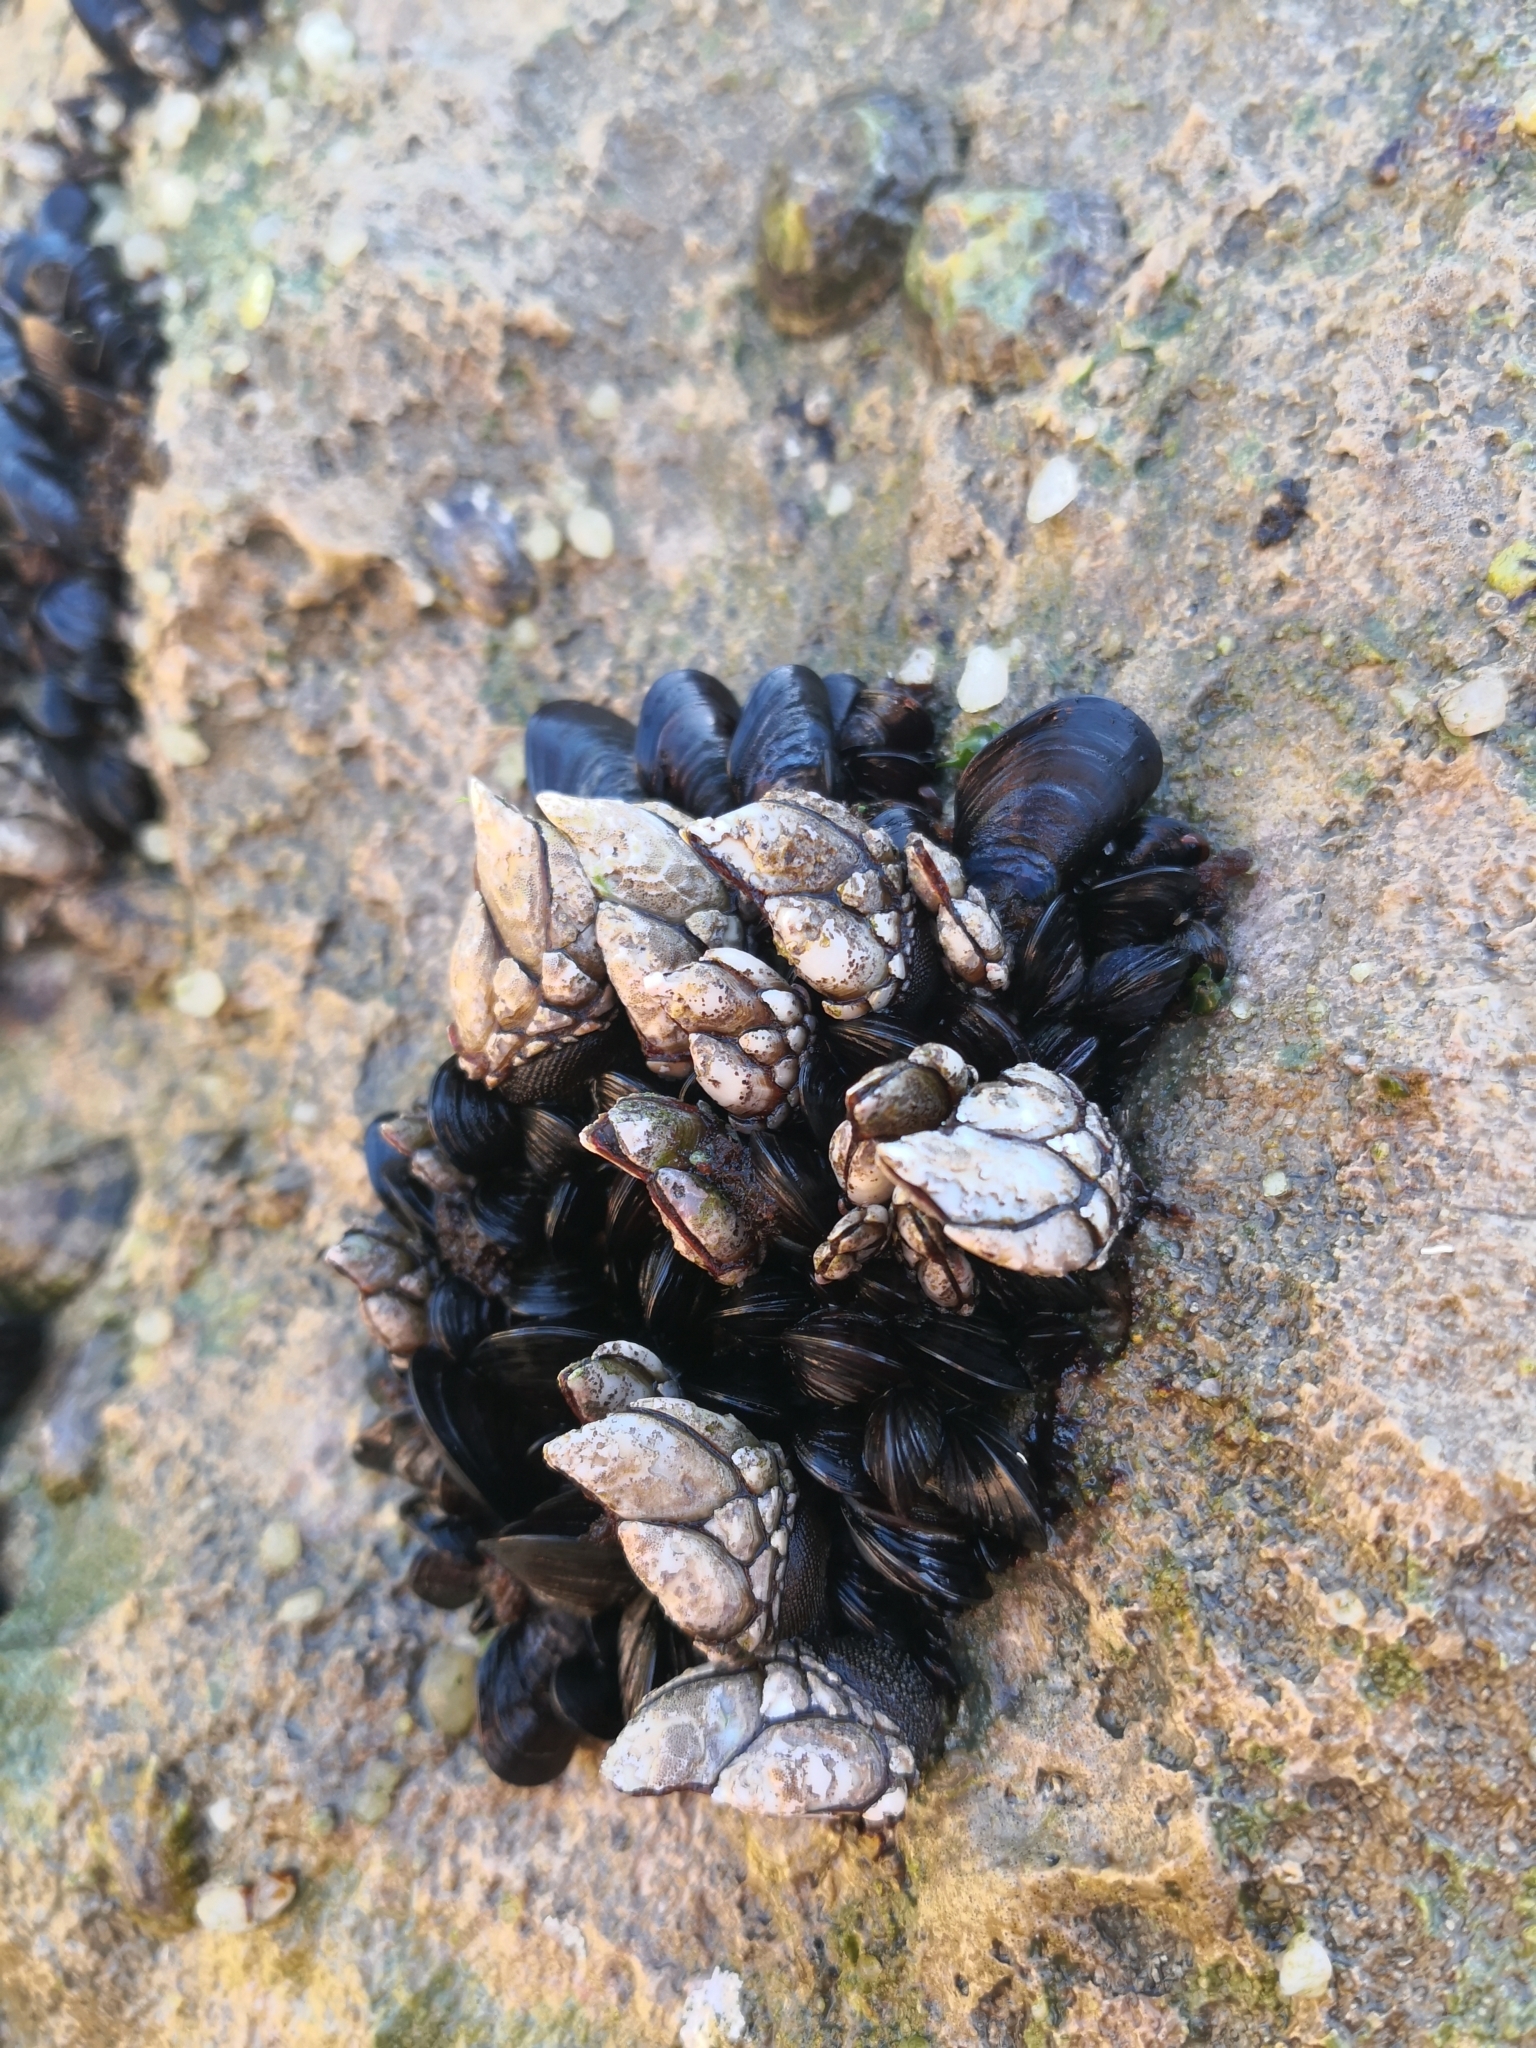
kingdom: Animalia
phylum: Arthropoda
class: Maxillopoda
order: Pedunculata
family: Pollicipedidae
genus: Pollicipes
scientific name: Pollicipes pollicipes
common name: Gooseneck barnacle
